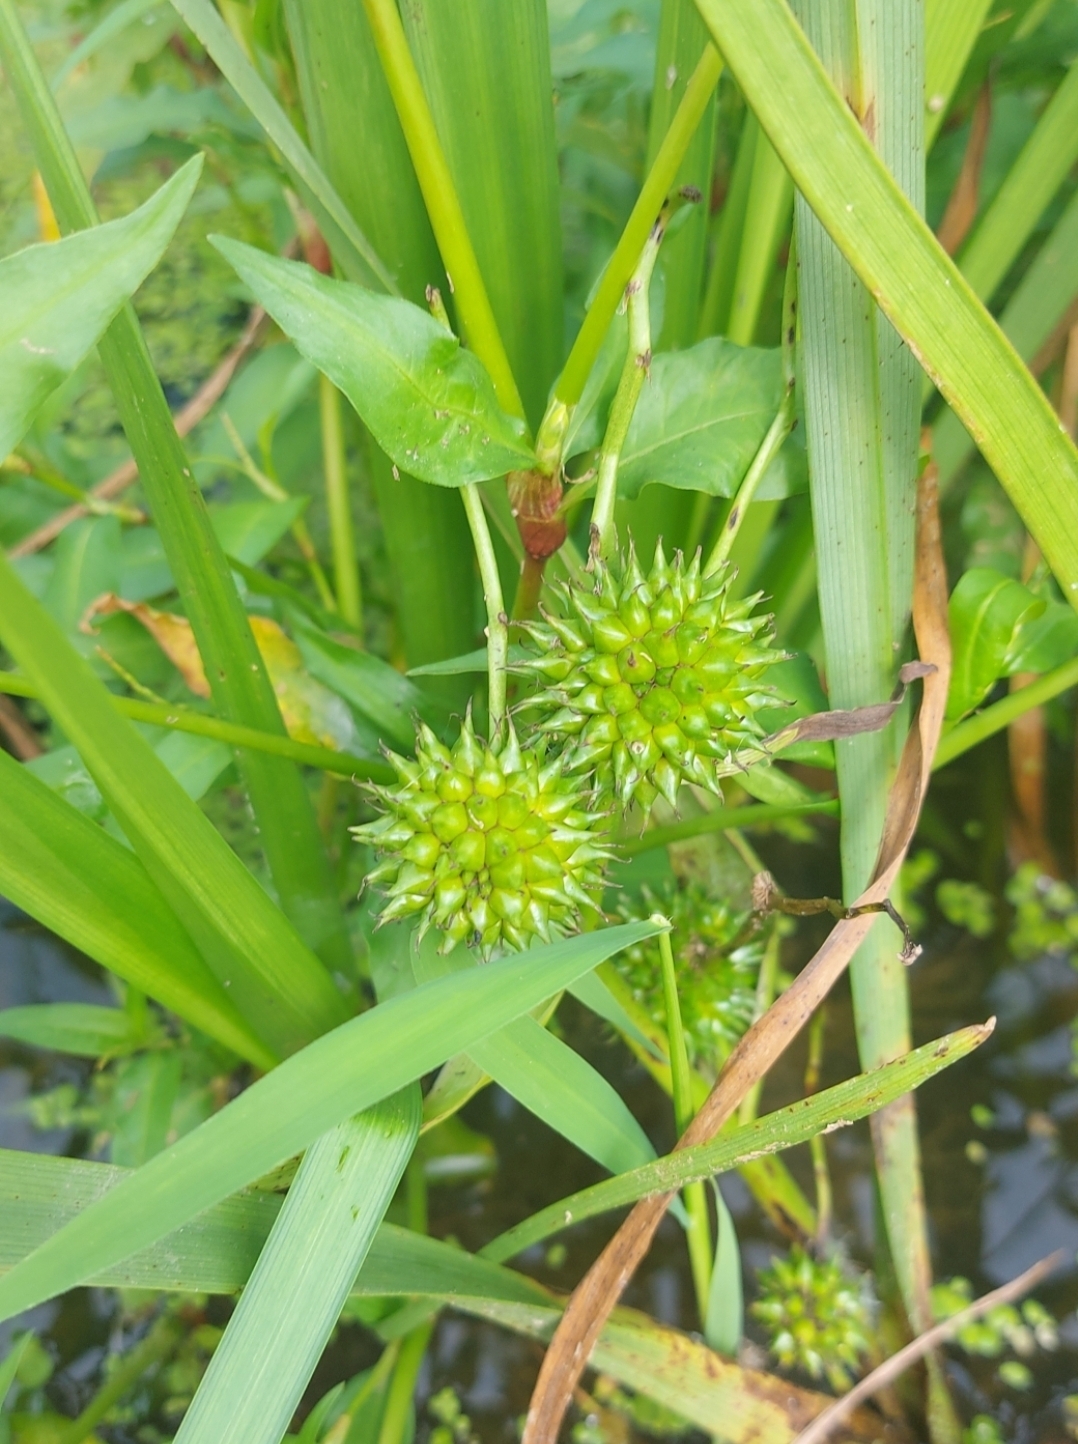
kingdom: Plantae
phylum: Tracheophyta
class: Liliopsida
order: Poales
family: Typhaceae
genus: Sparganium
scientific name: Sparganium erectum
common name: Branched bur-reed
